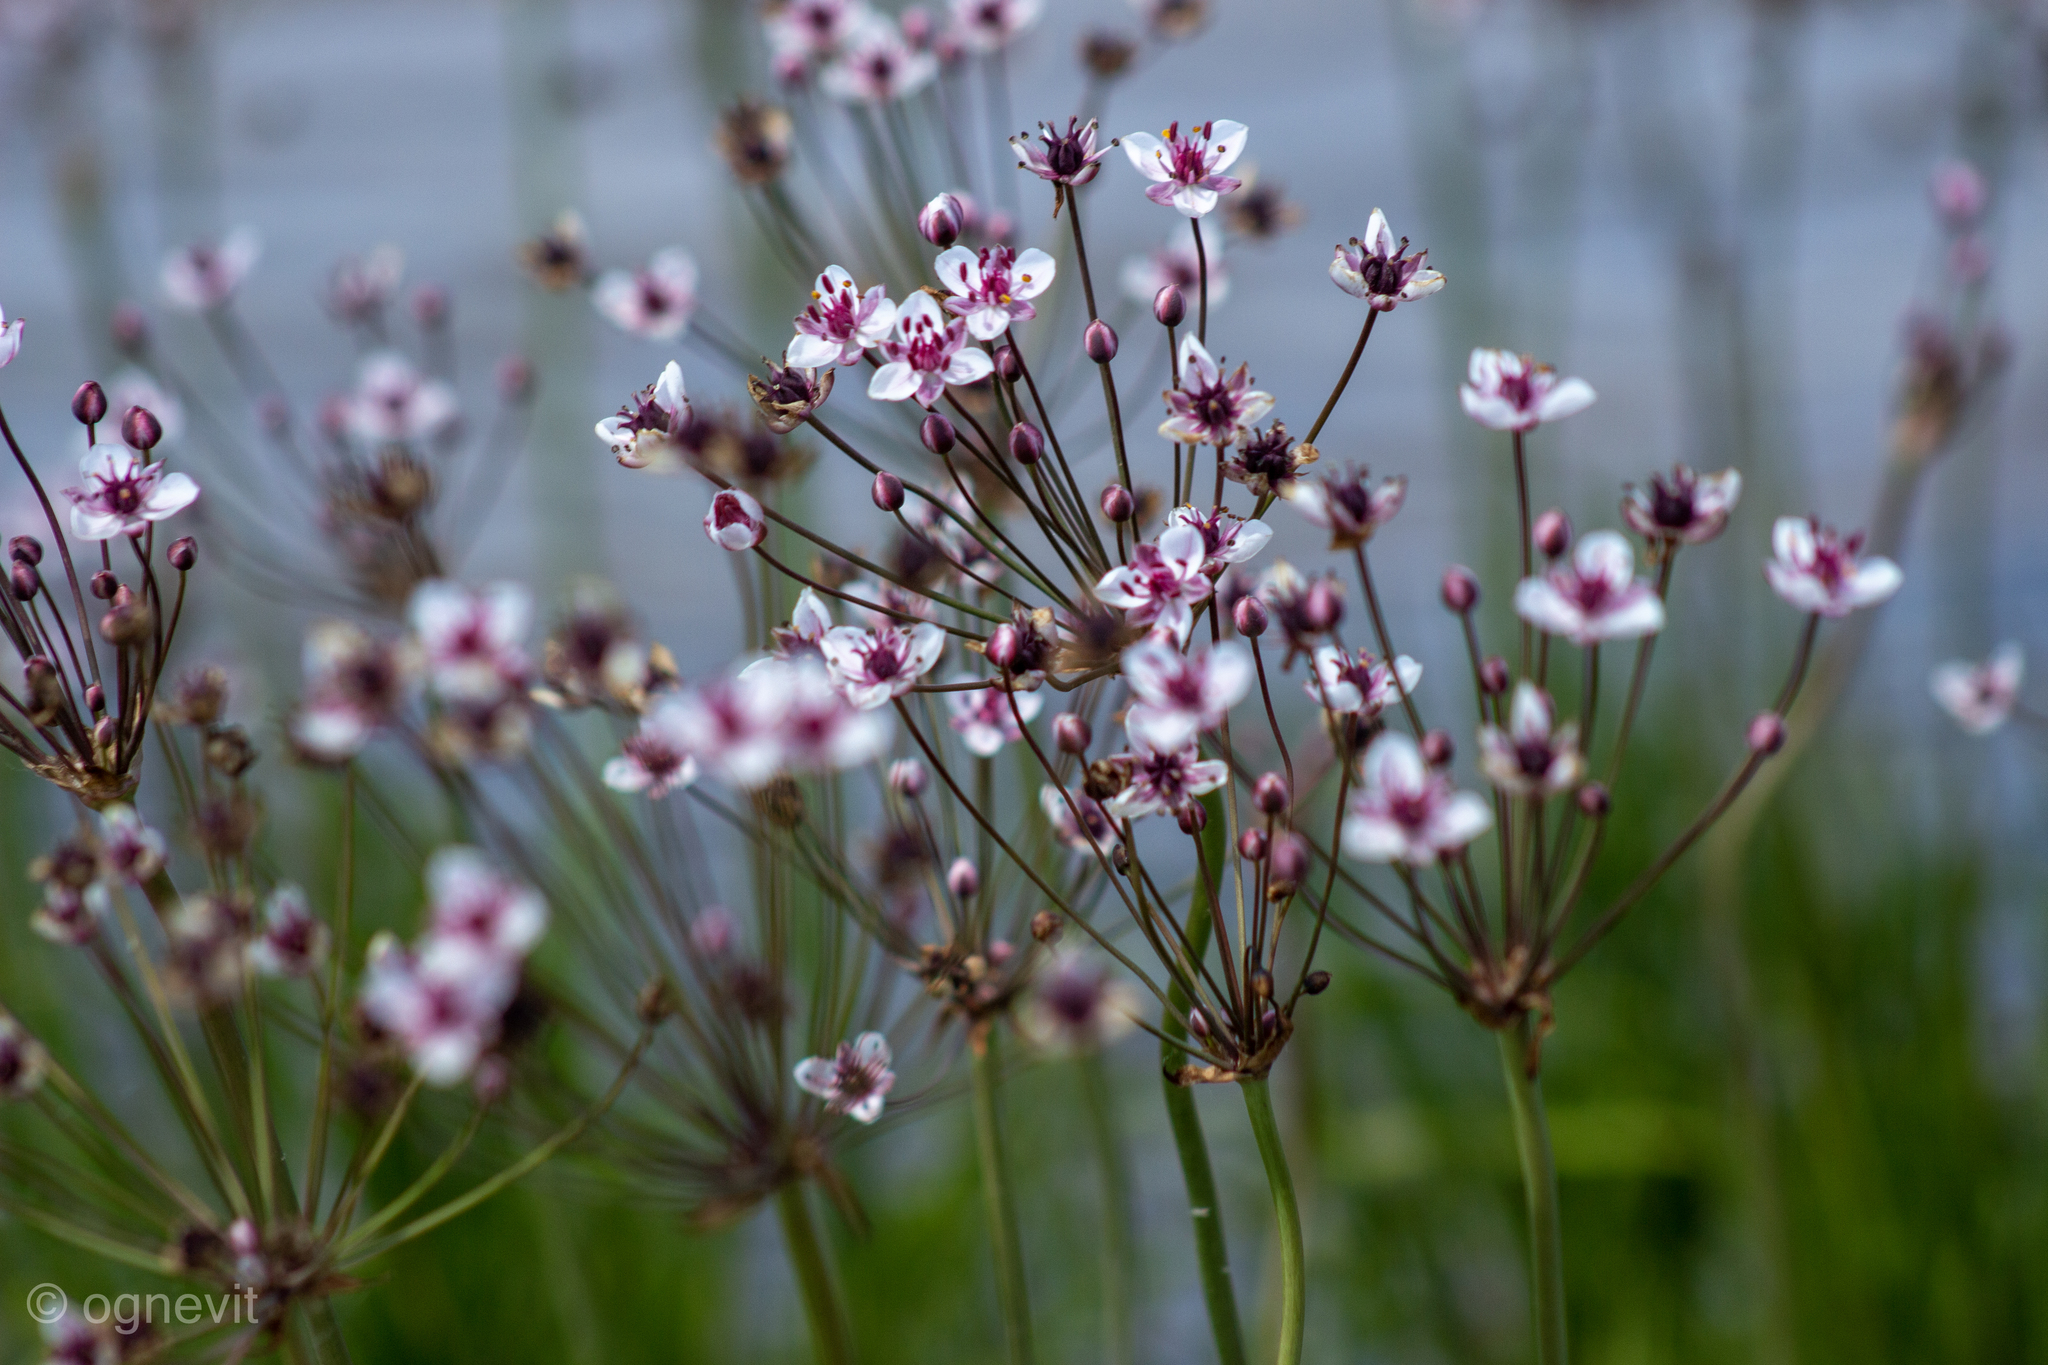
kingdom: Plantae
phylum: Tracheophyta
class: Liliopsida
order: Alismatales
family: Butomaceae
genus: Butomus
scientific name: Butomus umbellatus
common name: Flowering-rush
